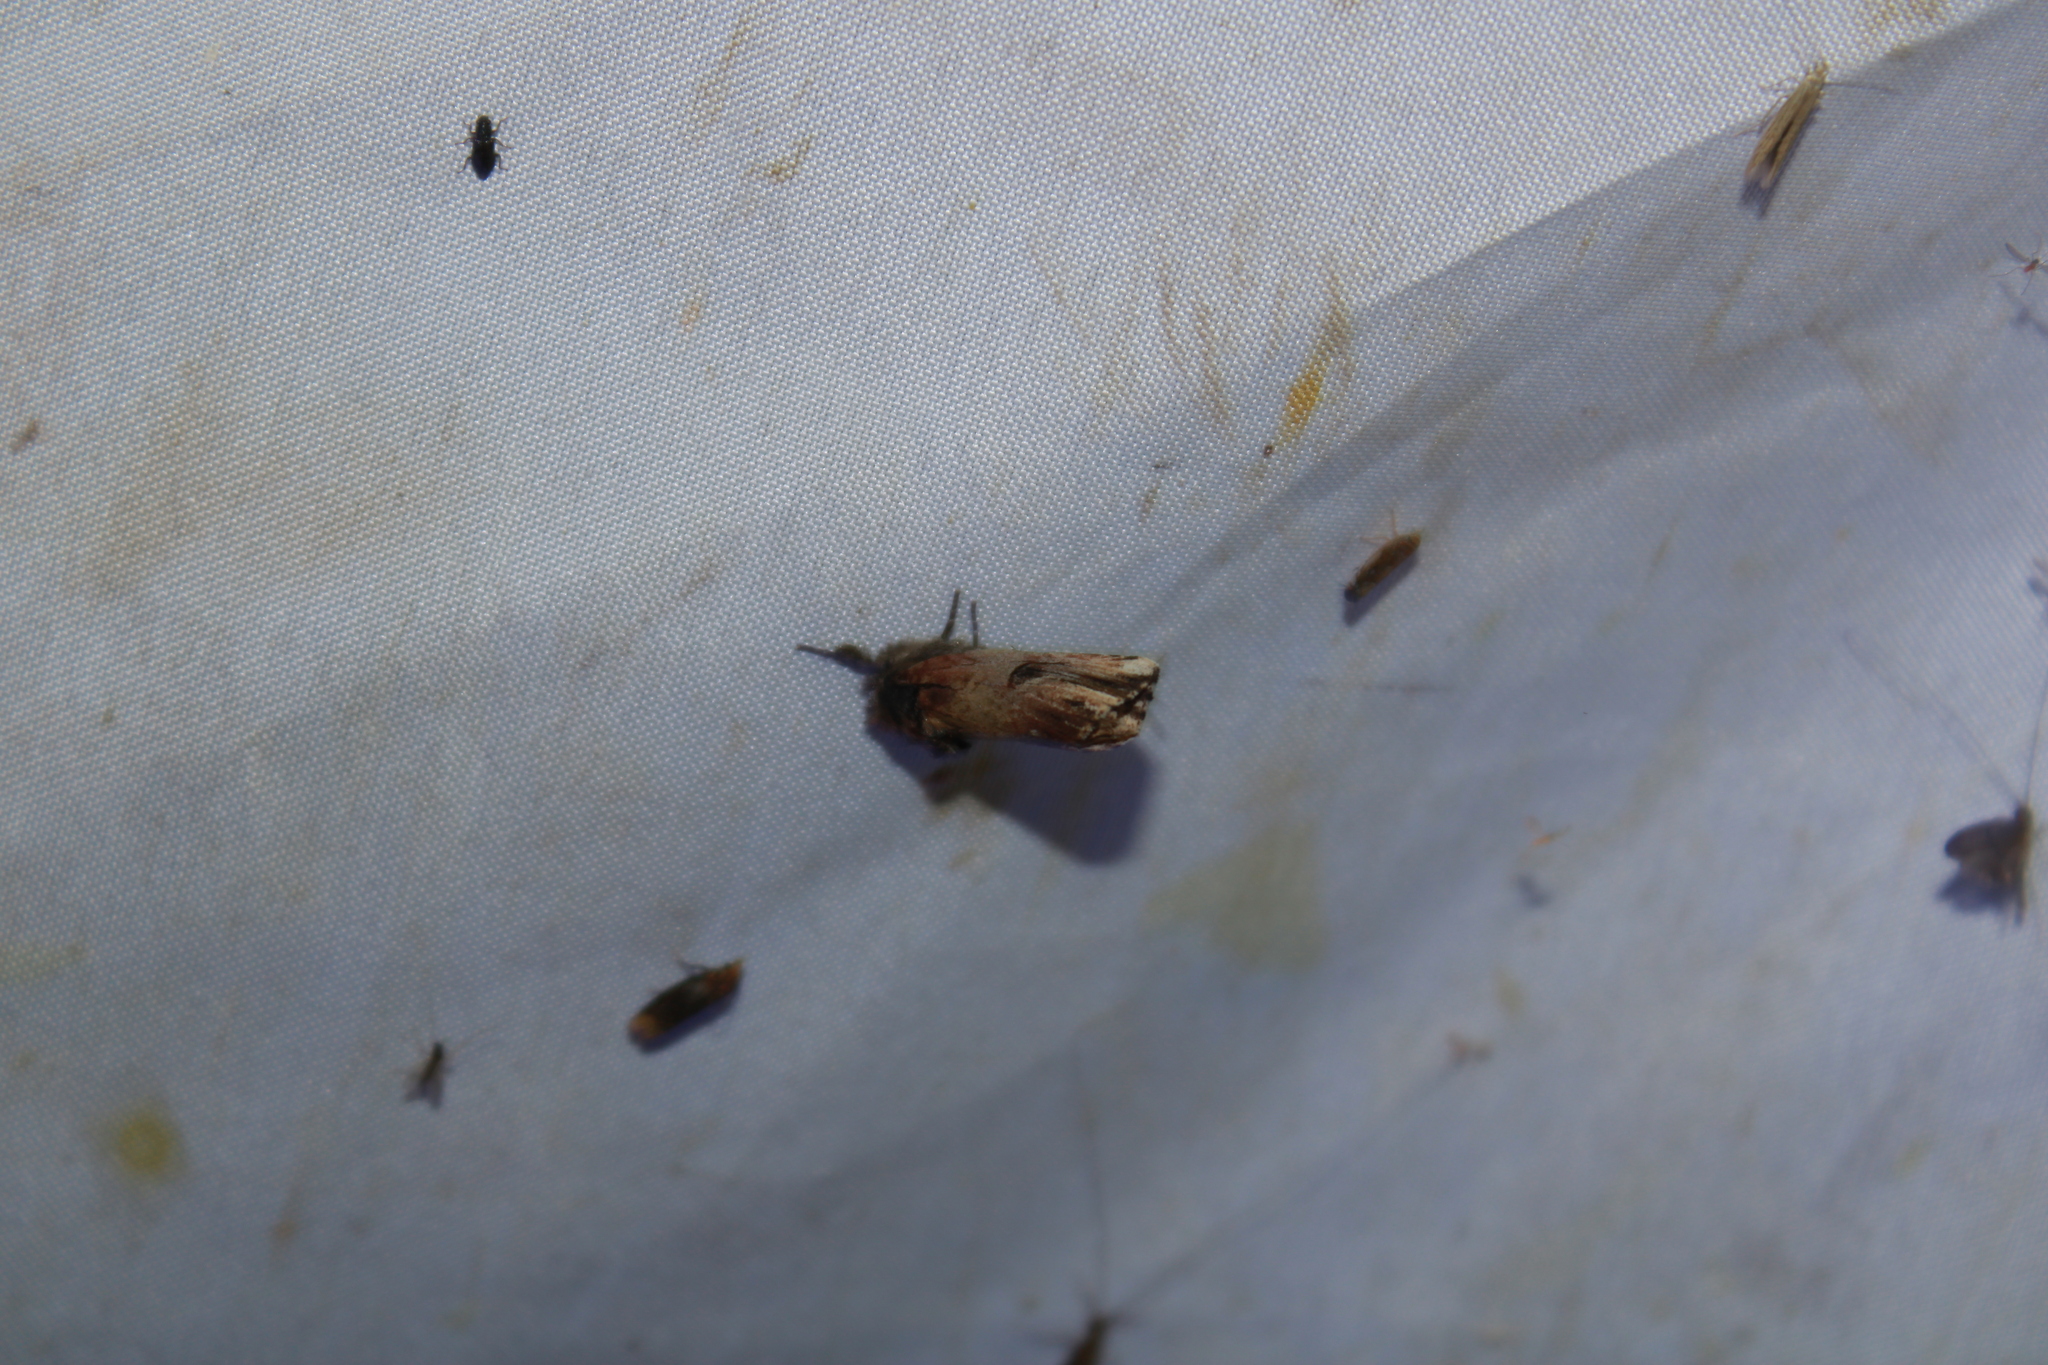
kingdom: Animalia
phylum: Arthropoda
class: Insecta
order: Lepidoptera
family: Notodontidae
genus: Schizura
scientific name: Schizura badia
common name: Chestnut schizura
